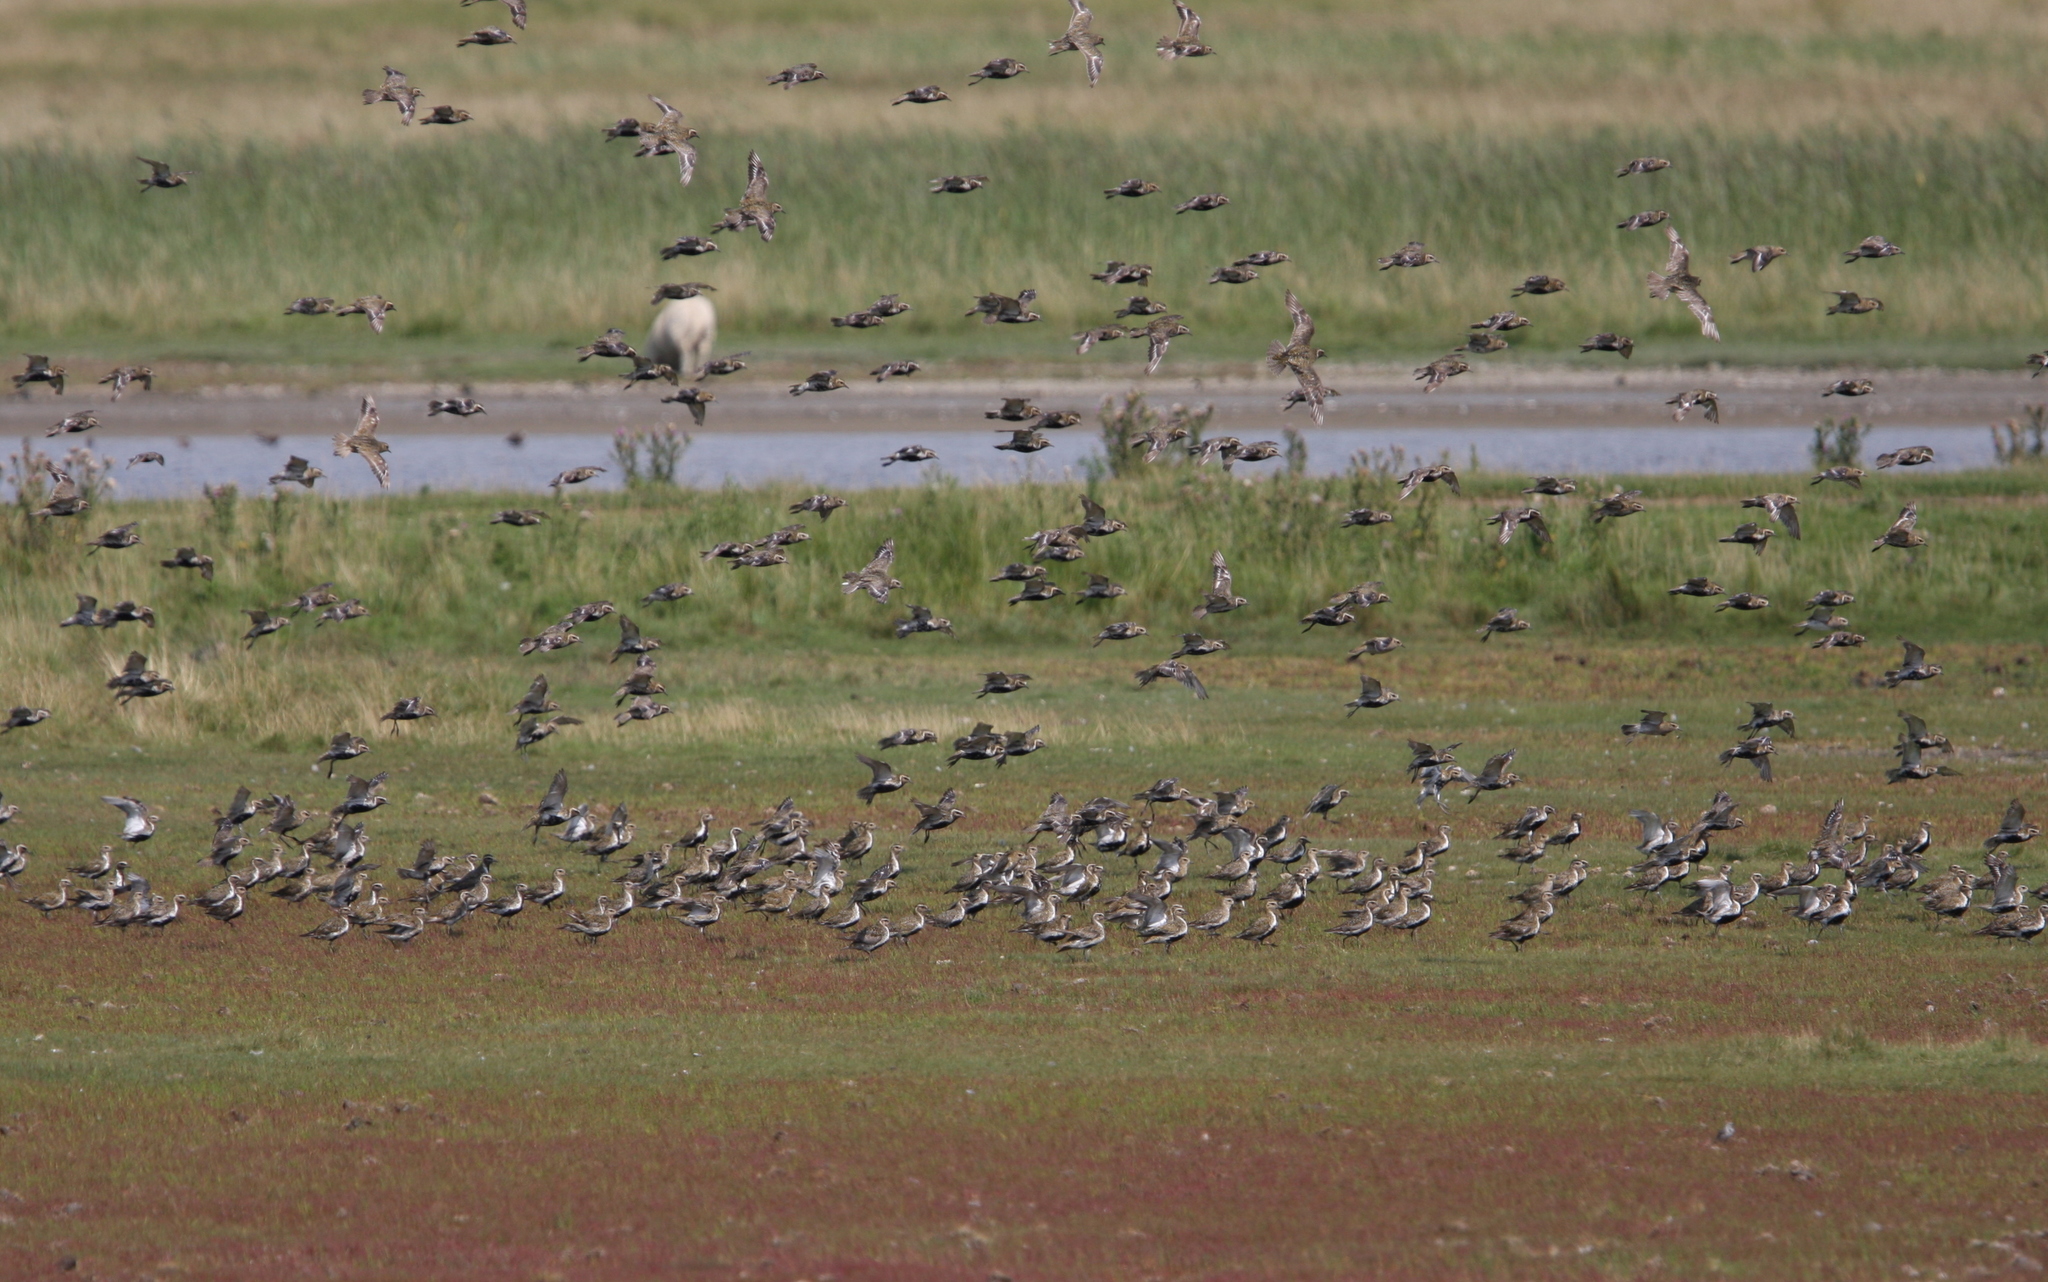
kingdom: Animalia
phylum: Chordata
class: Aves
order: Charadriiformes
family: Charadriidae
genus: Pluvialis
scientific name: Pluvialis apricaria
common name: European golden plover
